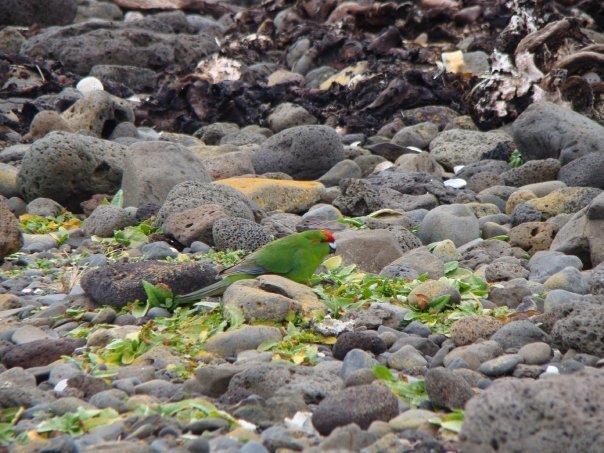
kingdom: Animalia
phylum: Chordata
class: Aves
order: Psittaciformes
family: Psittacidae
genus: Cyanoramphus
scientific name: Cyanoramphus novaezelandiae
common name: Red-fronted parakeet
